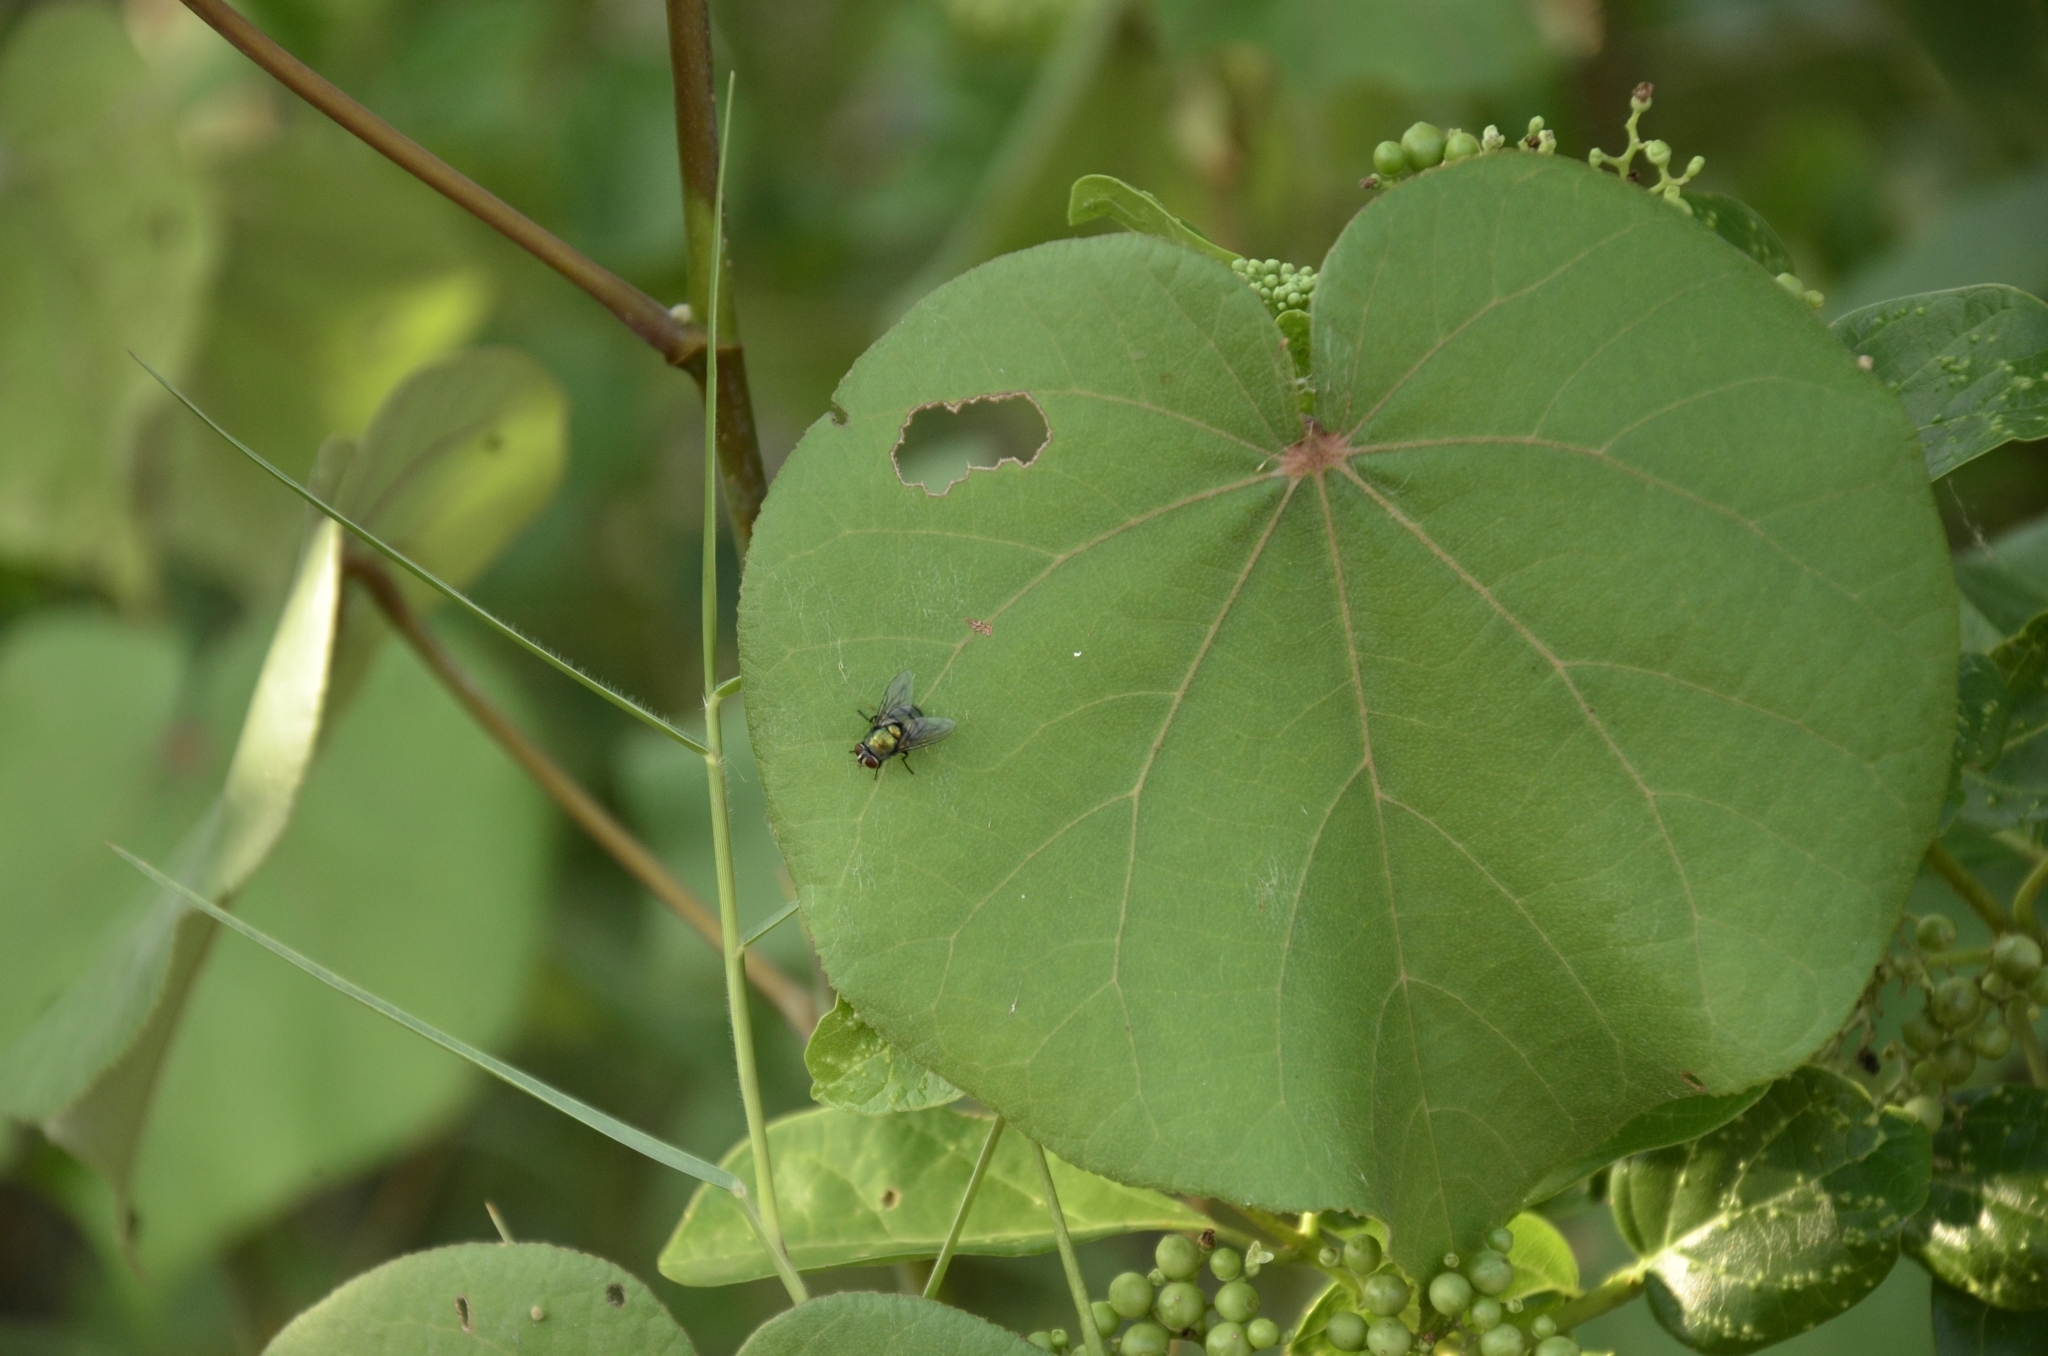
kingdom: Plantae
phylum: Tracheophyta
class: Magnoliopsida
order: Malvales
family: Malvaceae
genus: Talipariti
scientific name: Talipariti tiliaceum
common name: Sea hibiscus
